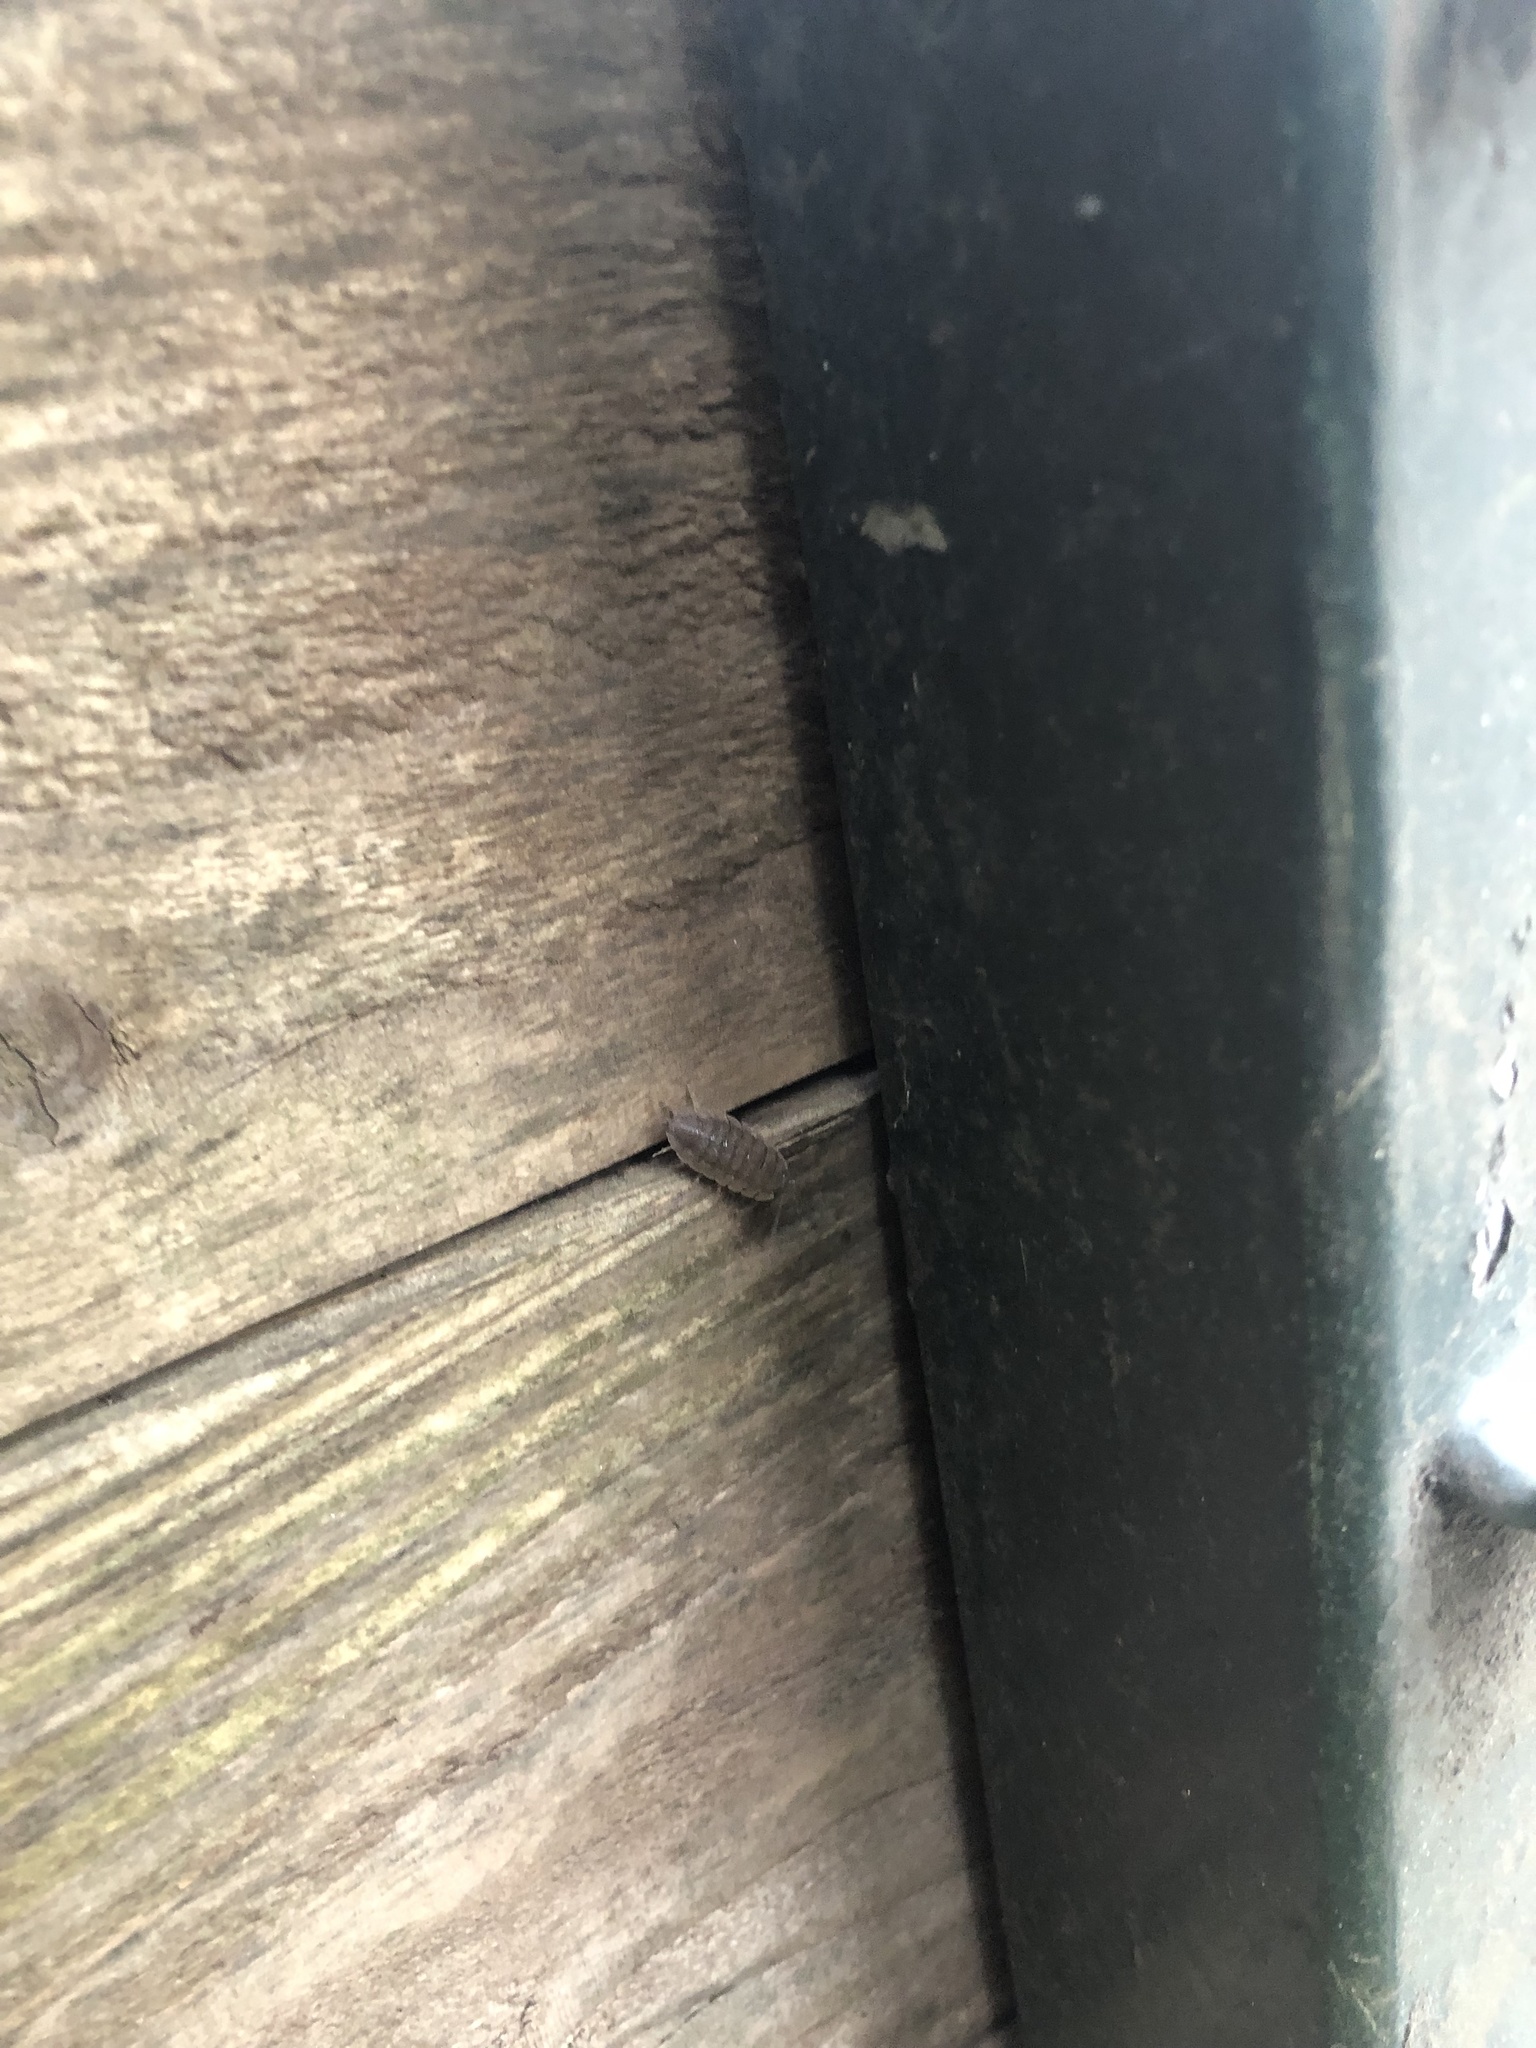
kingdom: Animalia
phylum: Arthropoda
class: Malacostraca
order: Isopoda
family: Porcellionidae
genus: Porcellio
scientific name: Porcellio scaber
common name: Common rough woodlouse
